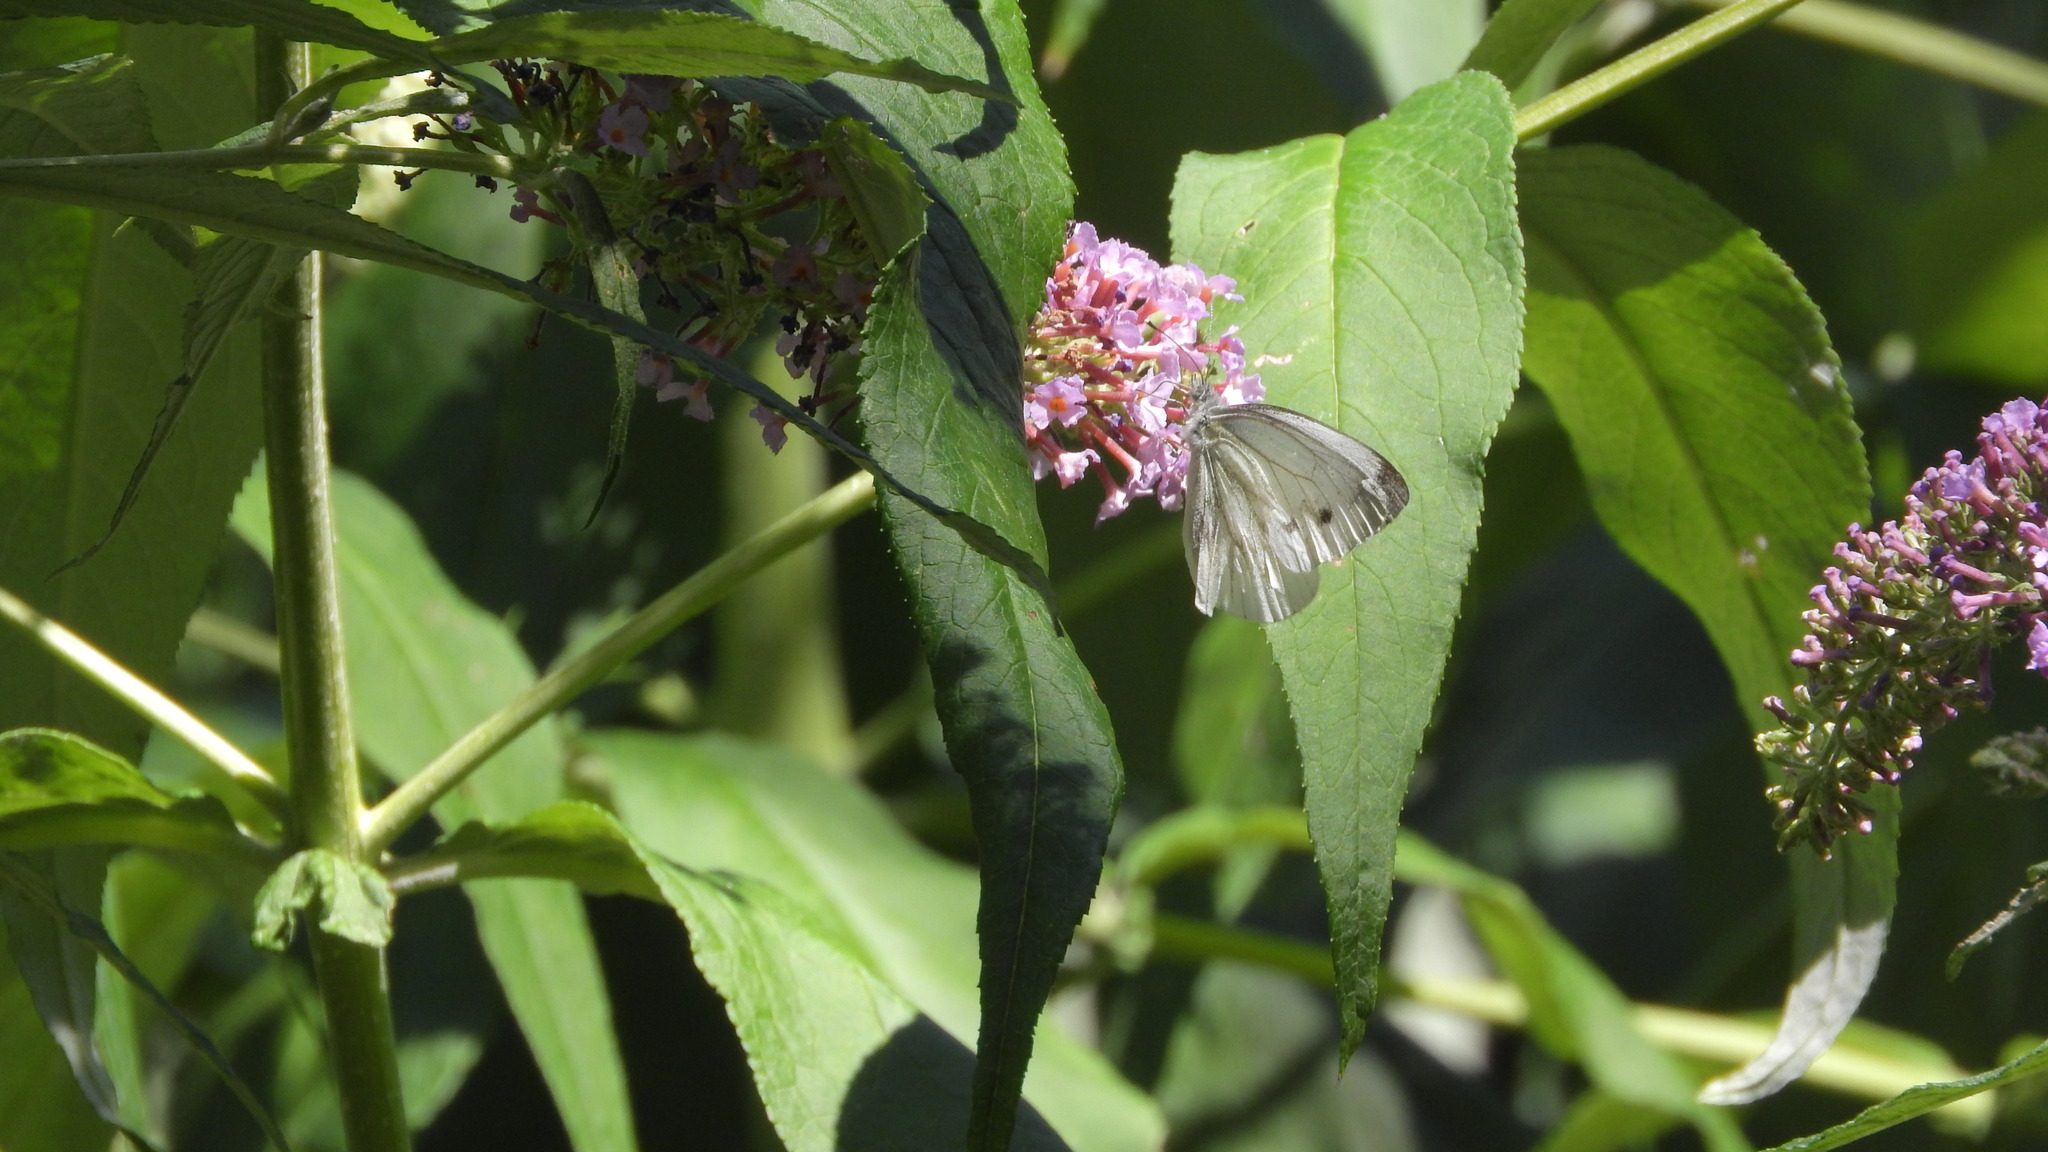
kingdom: Animalia
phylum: Arthropoda
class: Insecta
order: Lepidoptera
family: Pieridae
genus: Pieris
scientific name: Pieris napi
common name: Green-veined white
